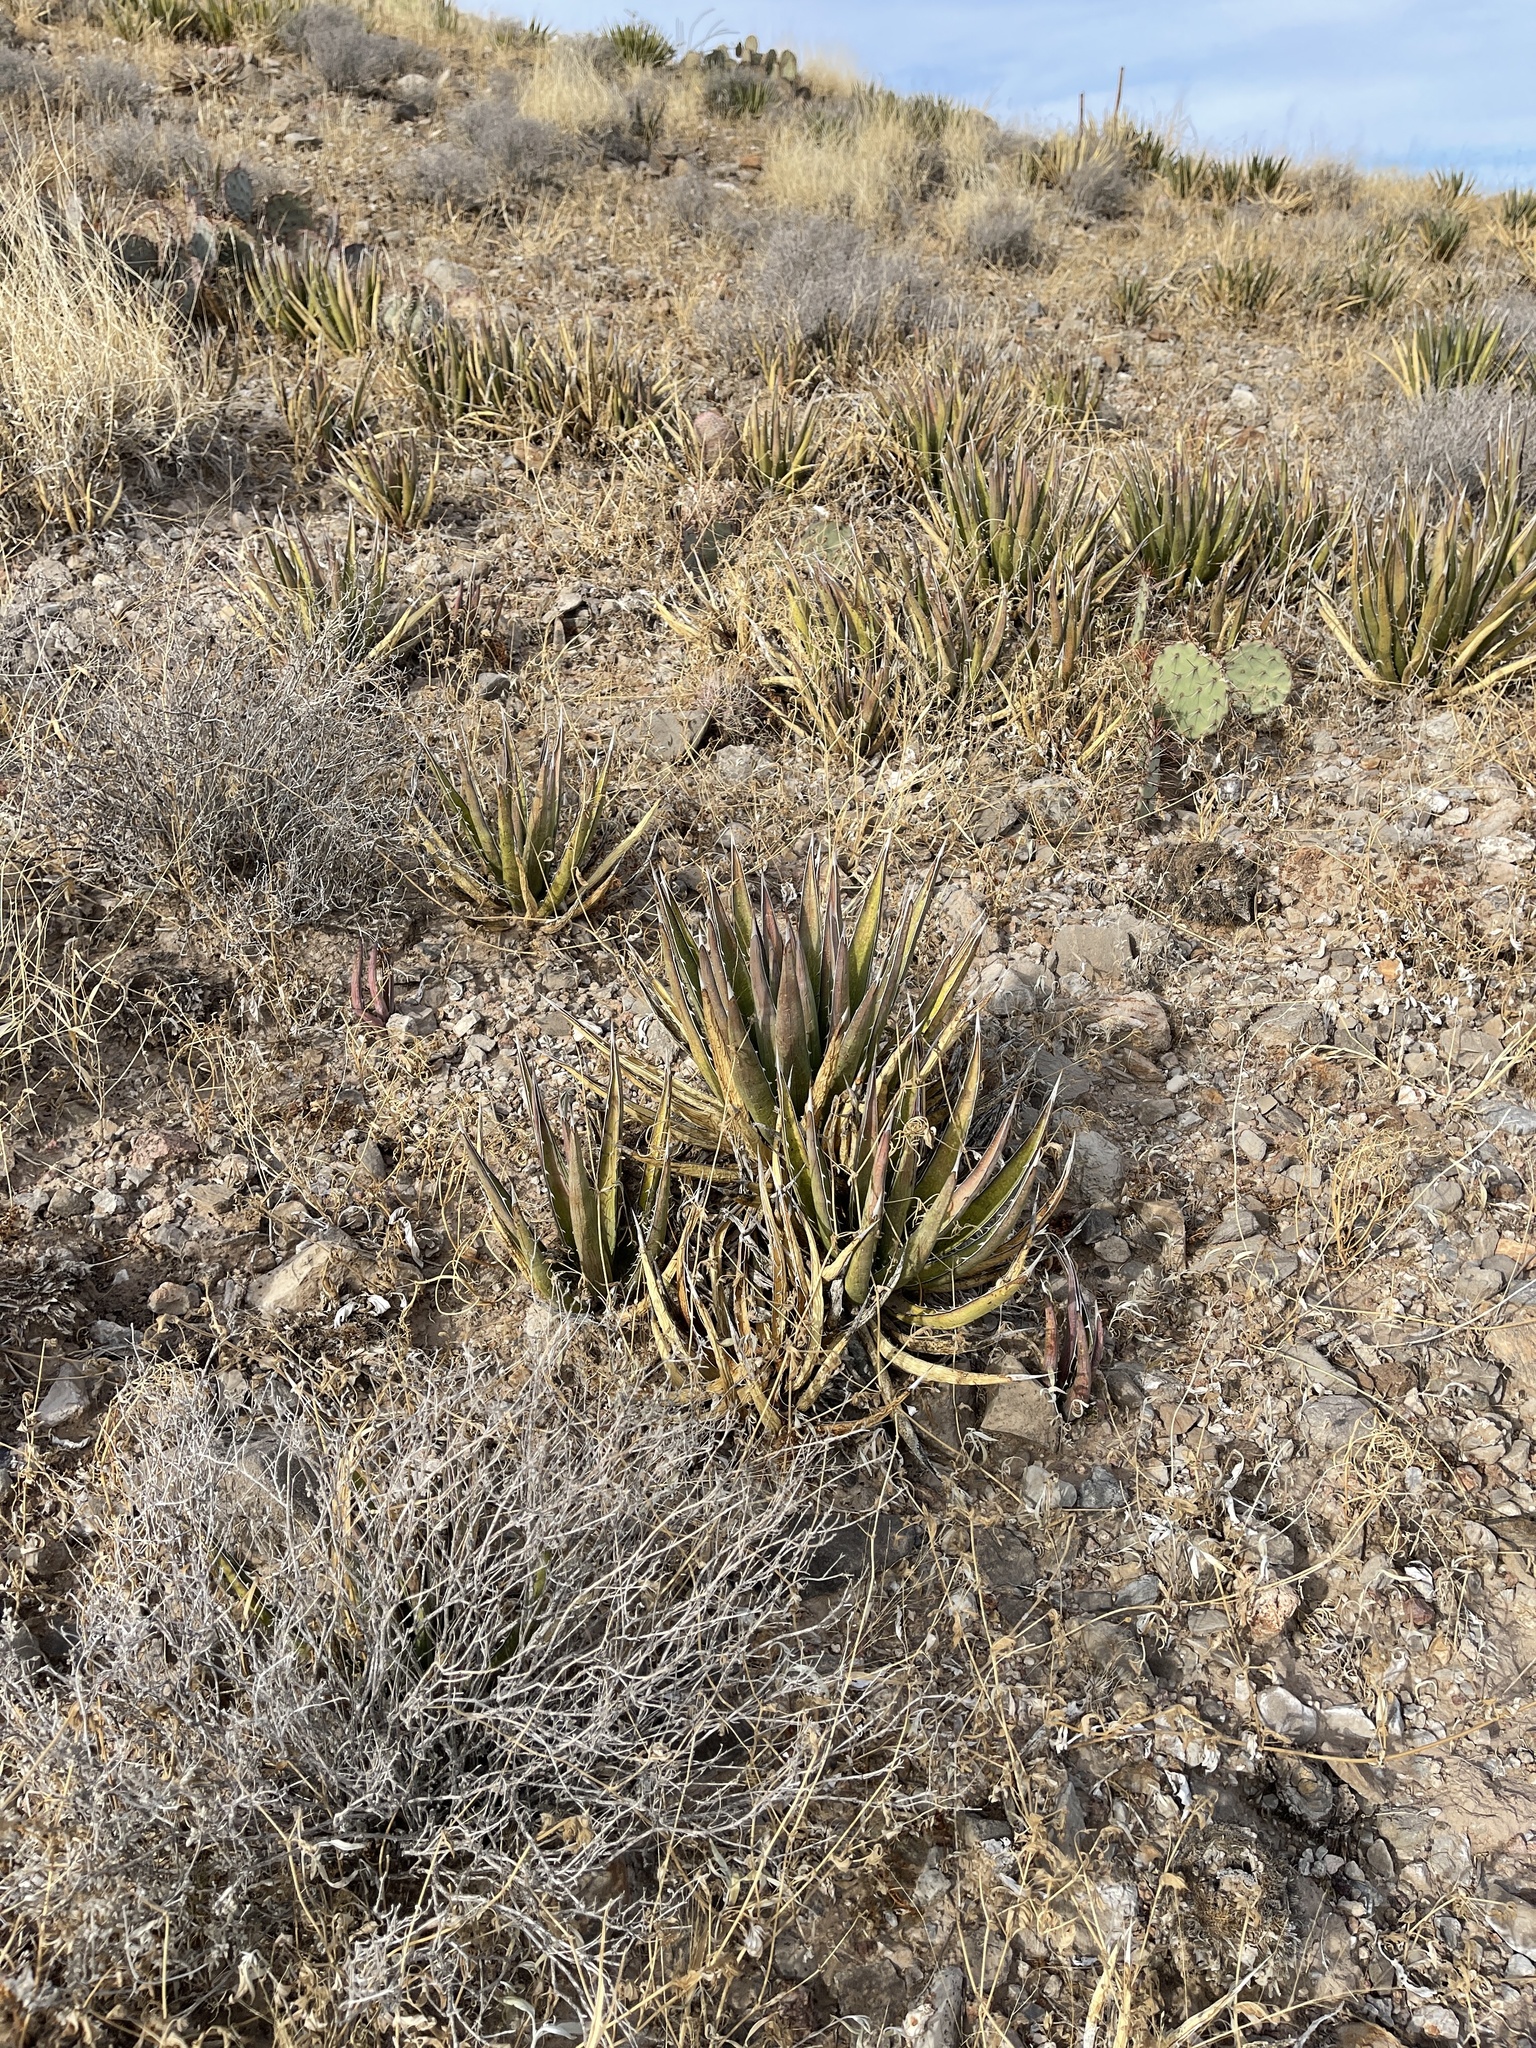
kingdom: Plantae
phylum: Tracheophyta
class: Liliopsida
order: Asparagales
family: Asparagaceae
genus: Agave
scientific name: Agave lechuguilla
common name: Lecheguilla agave
